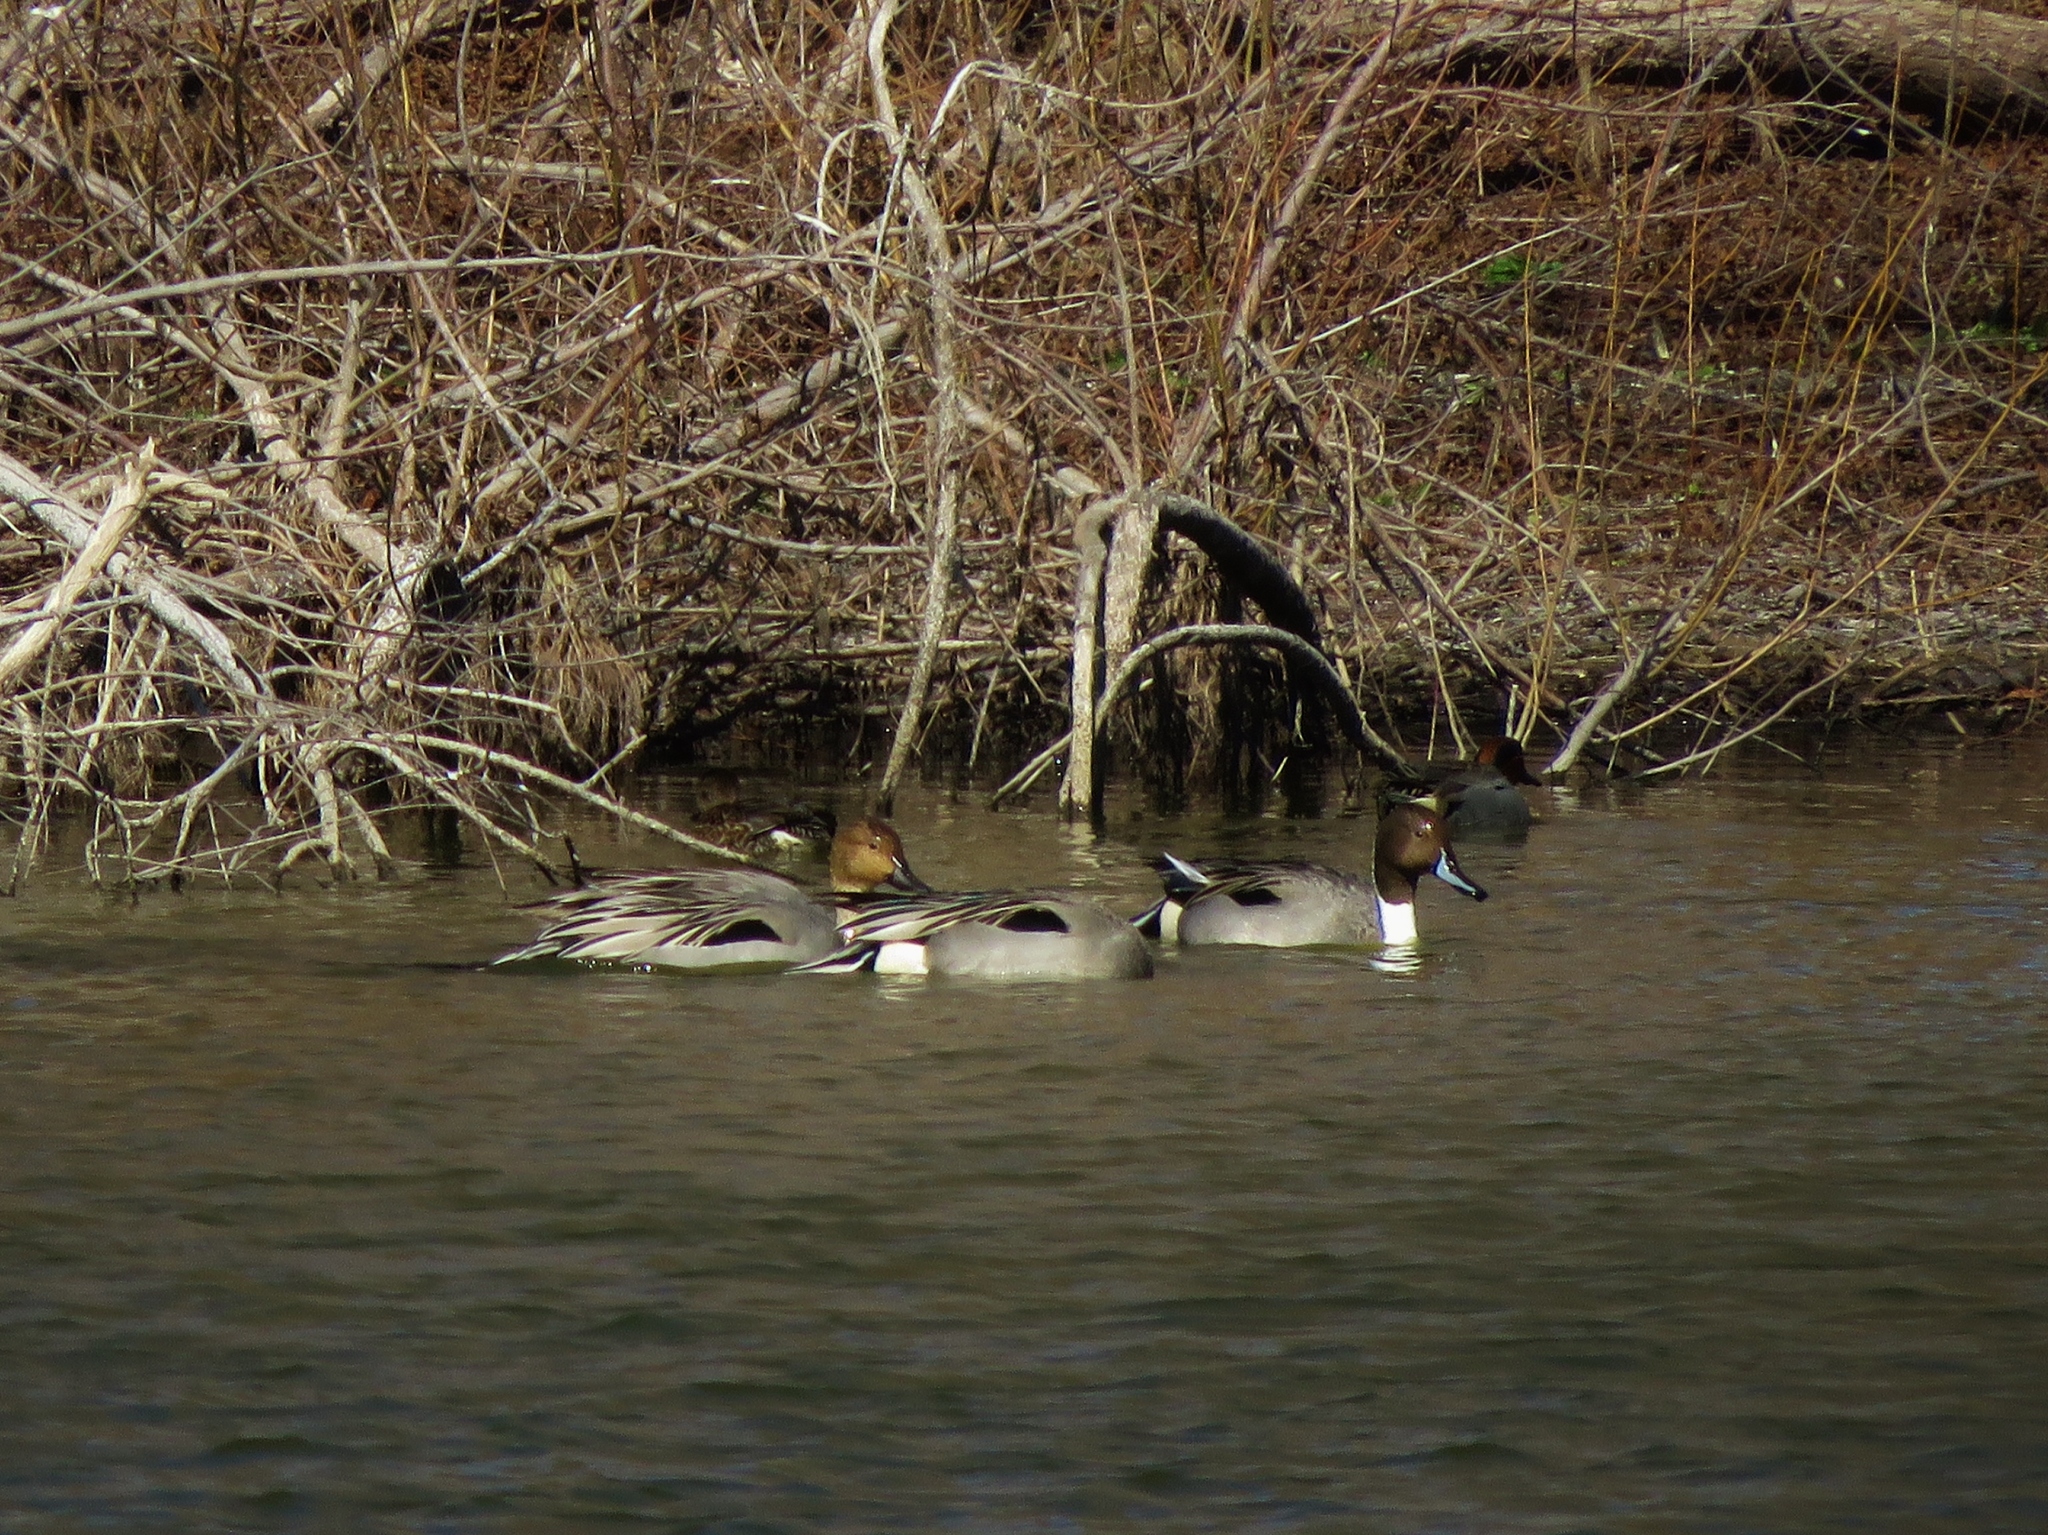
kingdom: Animalia
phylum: Chordata
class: Aves
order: Anseriformes
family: Anatidae
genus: Anas
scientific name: Anas acuta
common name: Northern pintail
